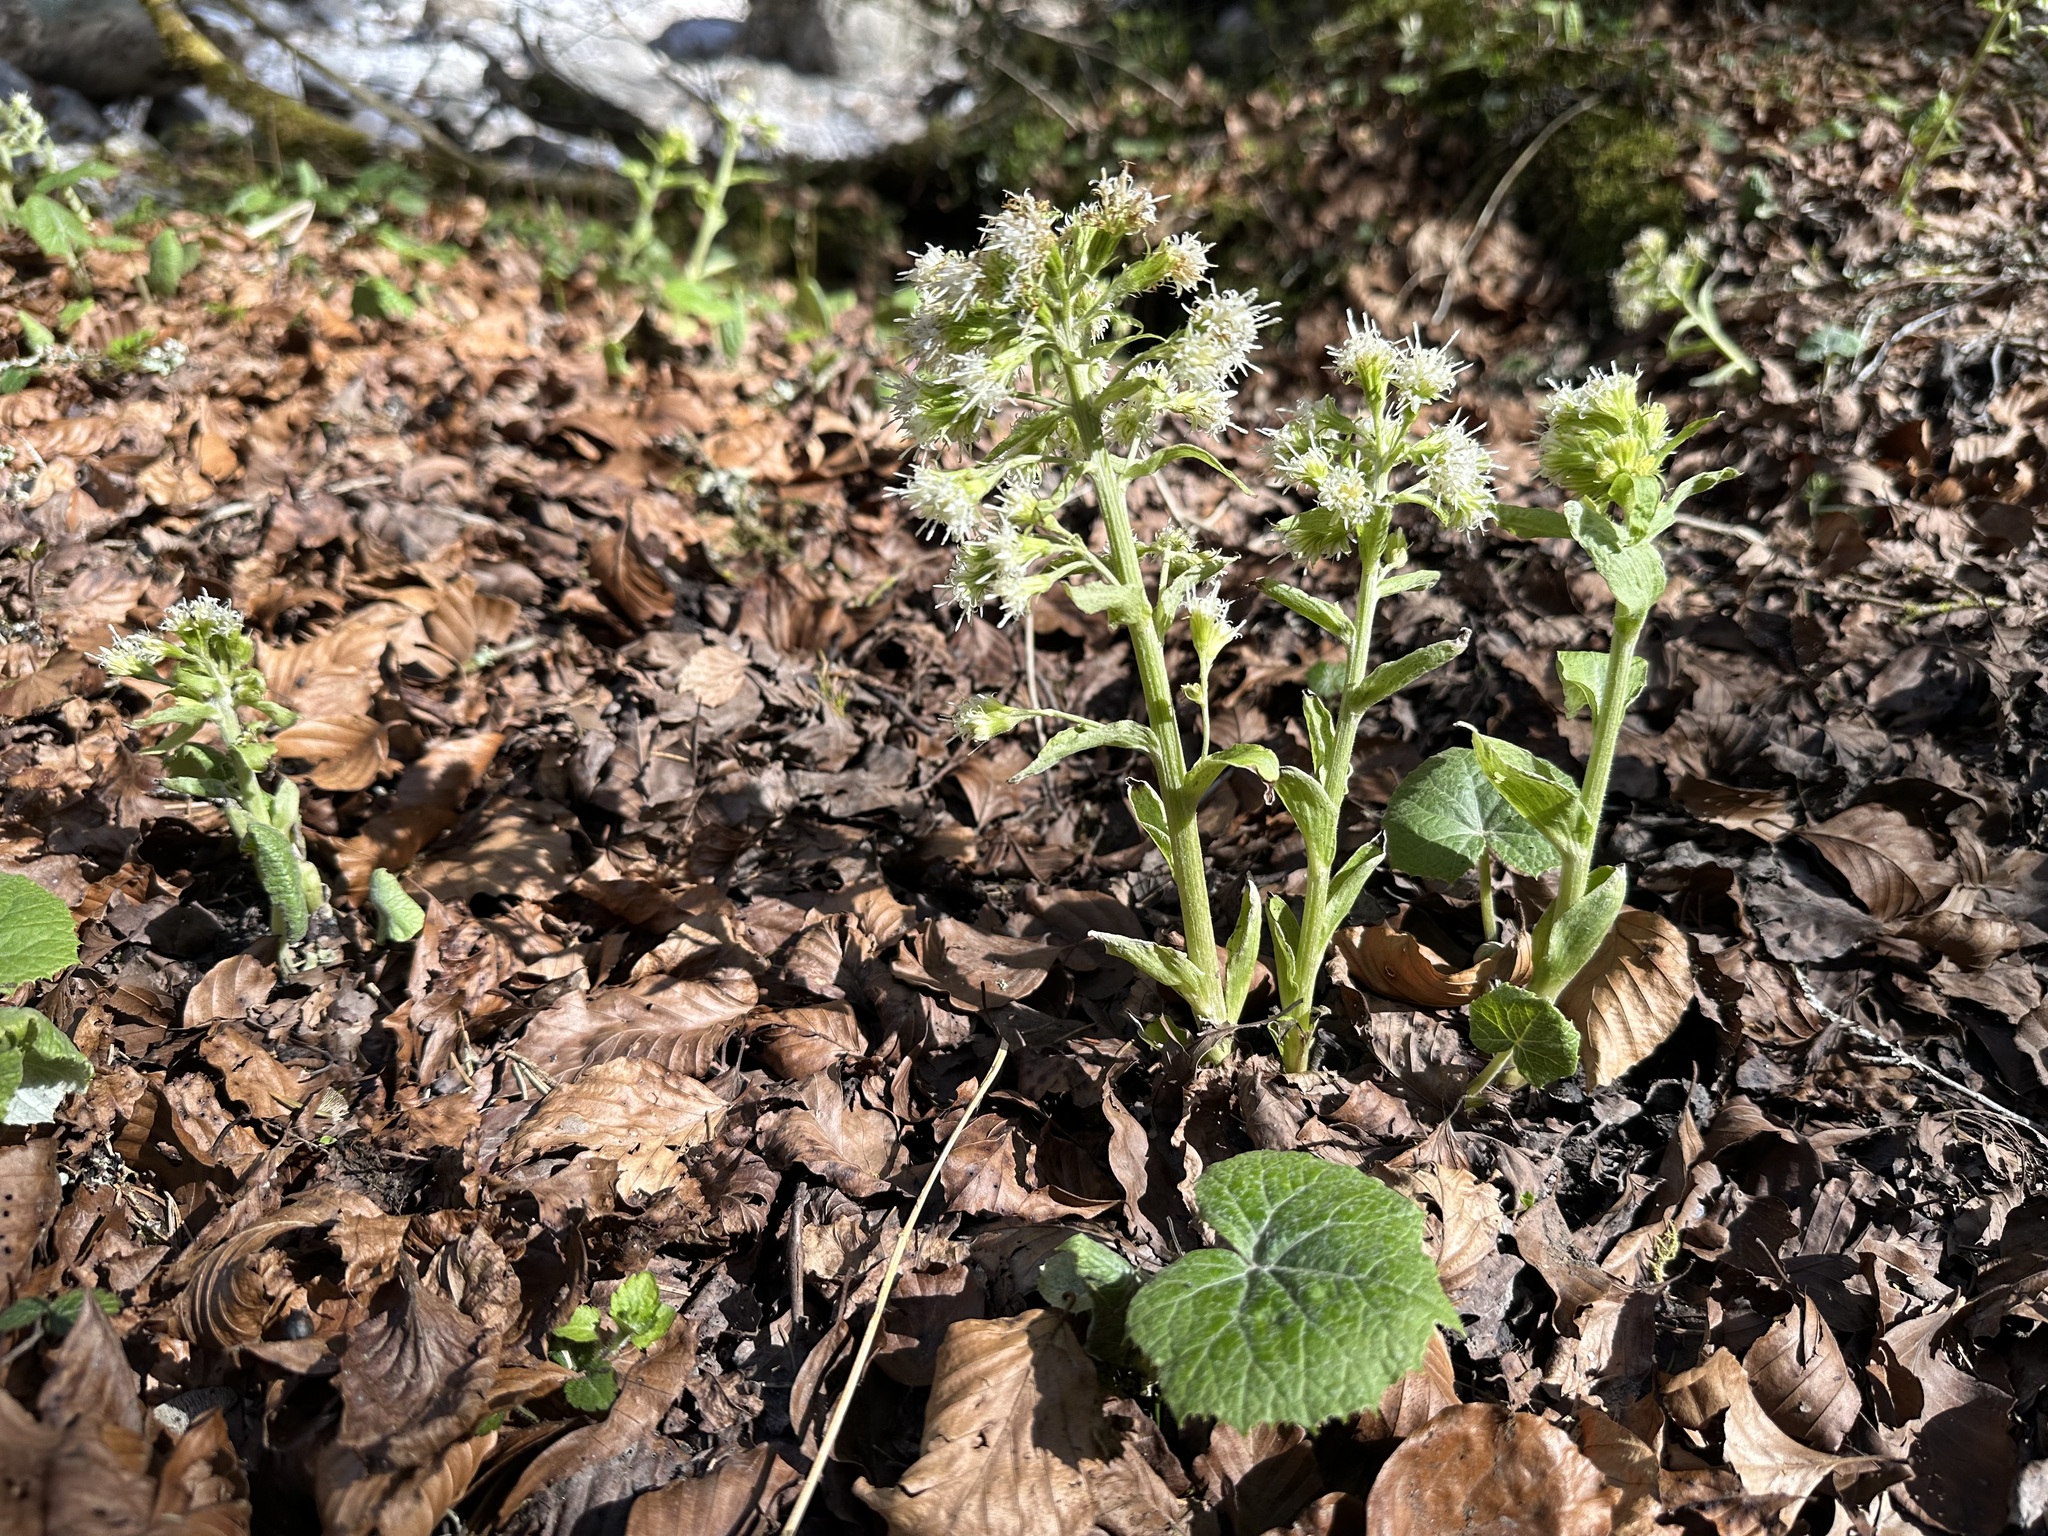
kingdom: Plantae
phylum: Tracheophyta
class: Magnoliopsida
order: Asterales
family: Asteraceae
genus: Petasites
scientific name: Petasites albus
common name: White butterbur
